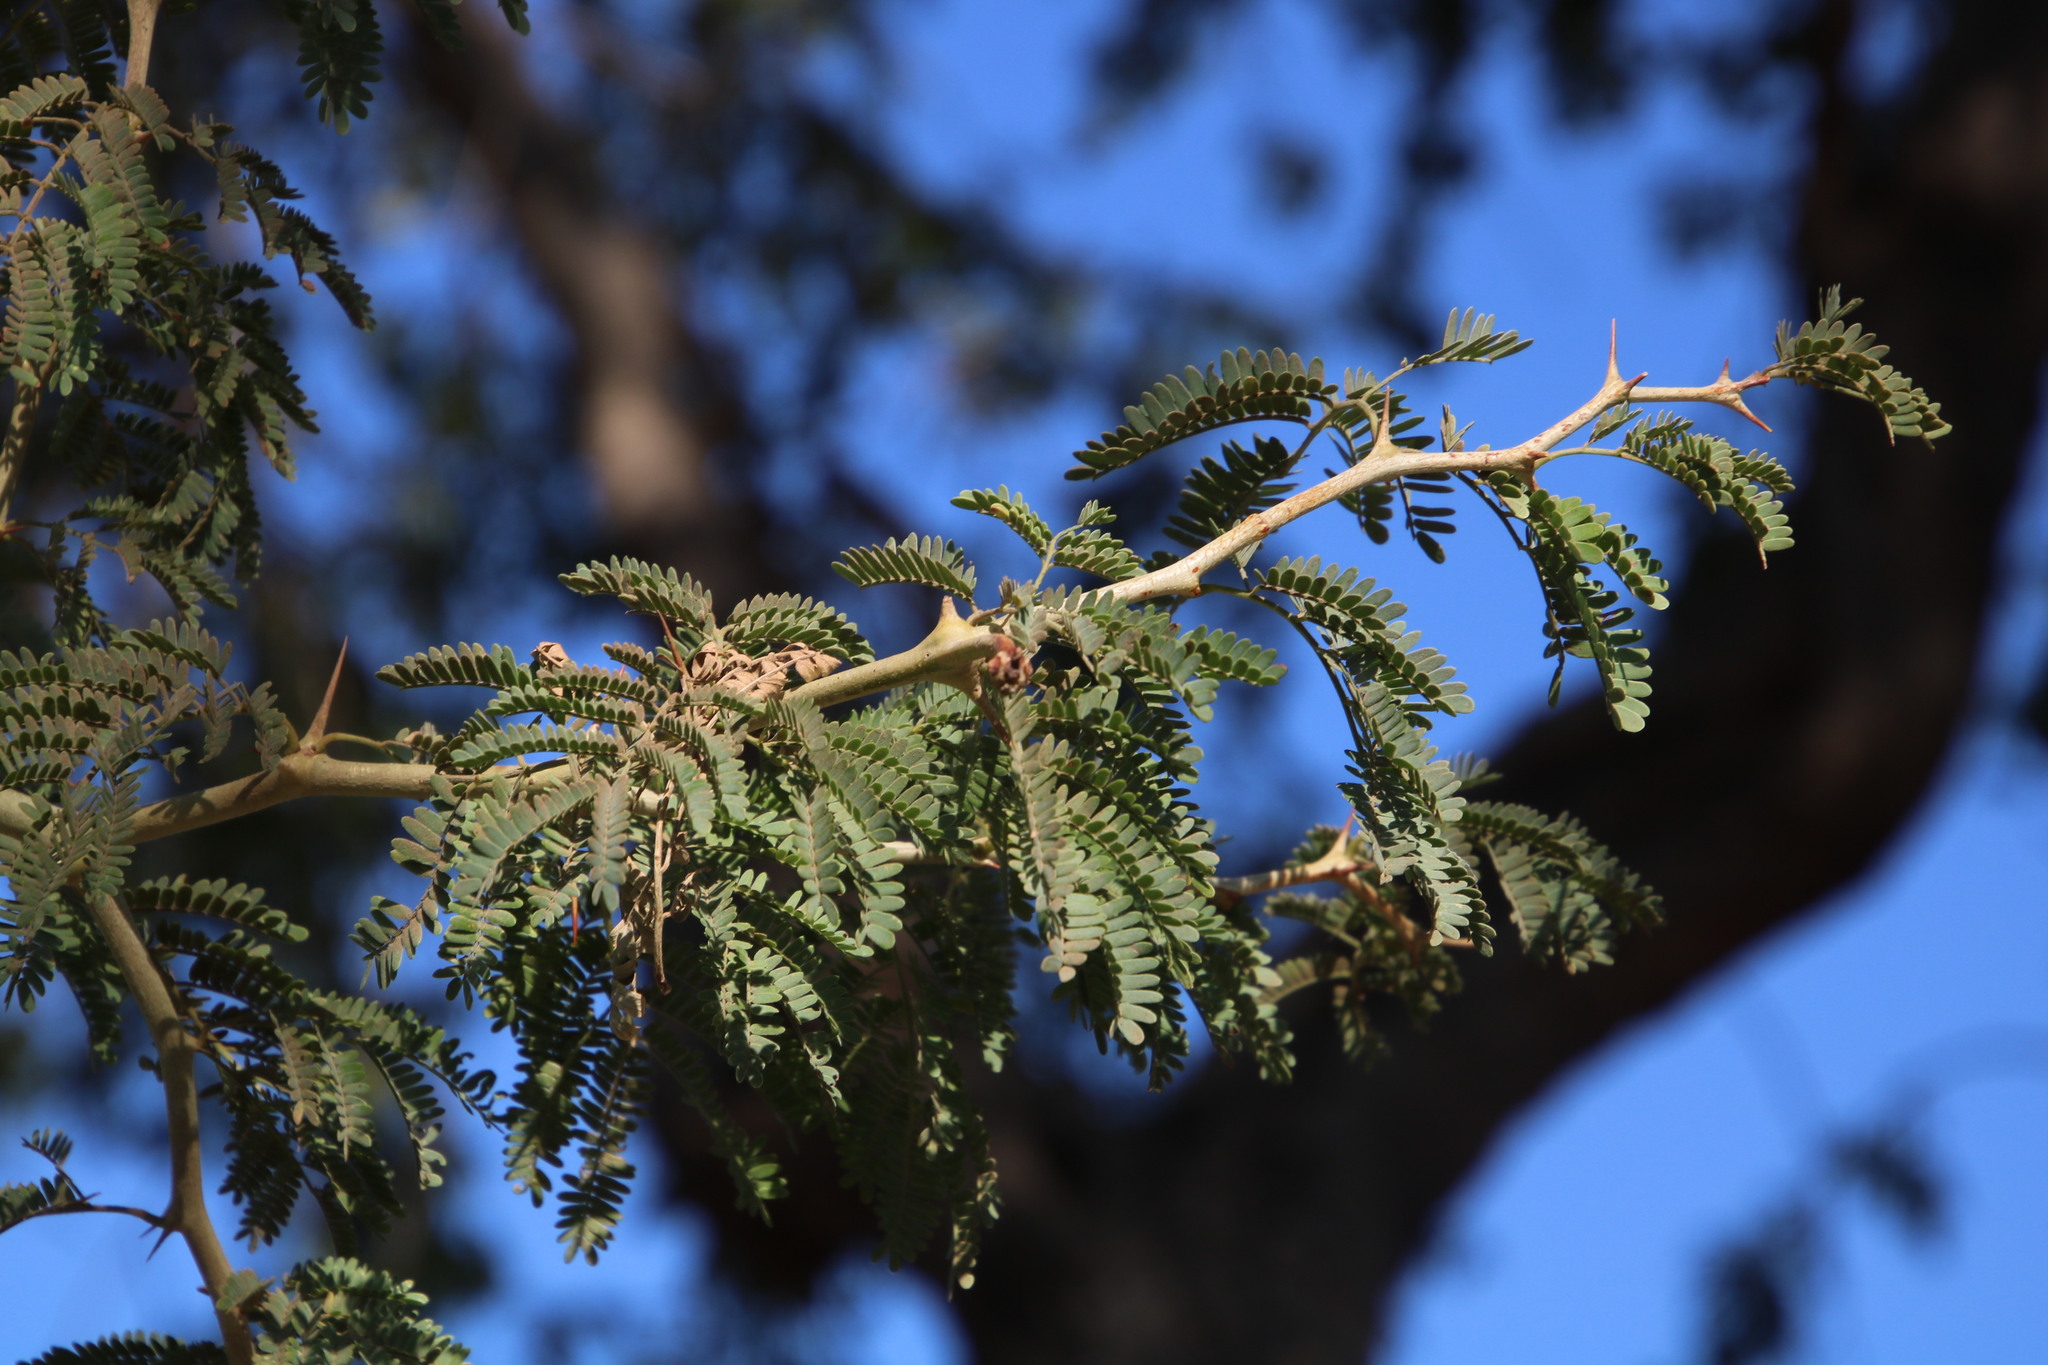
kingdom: Plantae
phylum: Tracheophyta
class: Magnoliopsida
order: Fabales
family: Fabaceae
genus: Faidherbia
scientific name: Faidherbia albida
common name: Anatree
